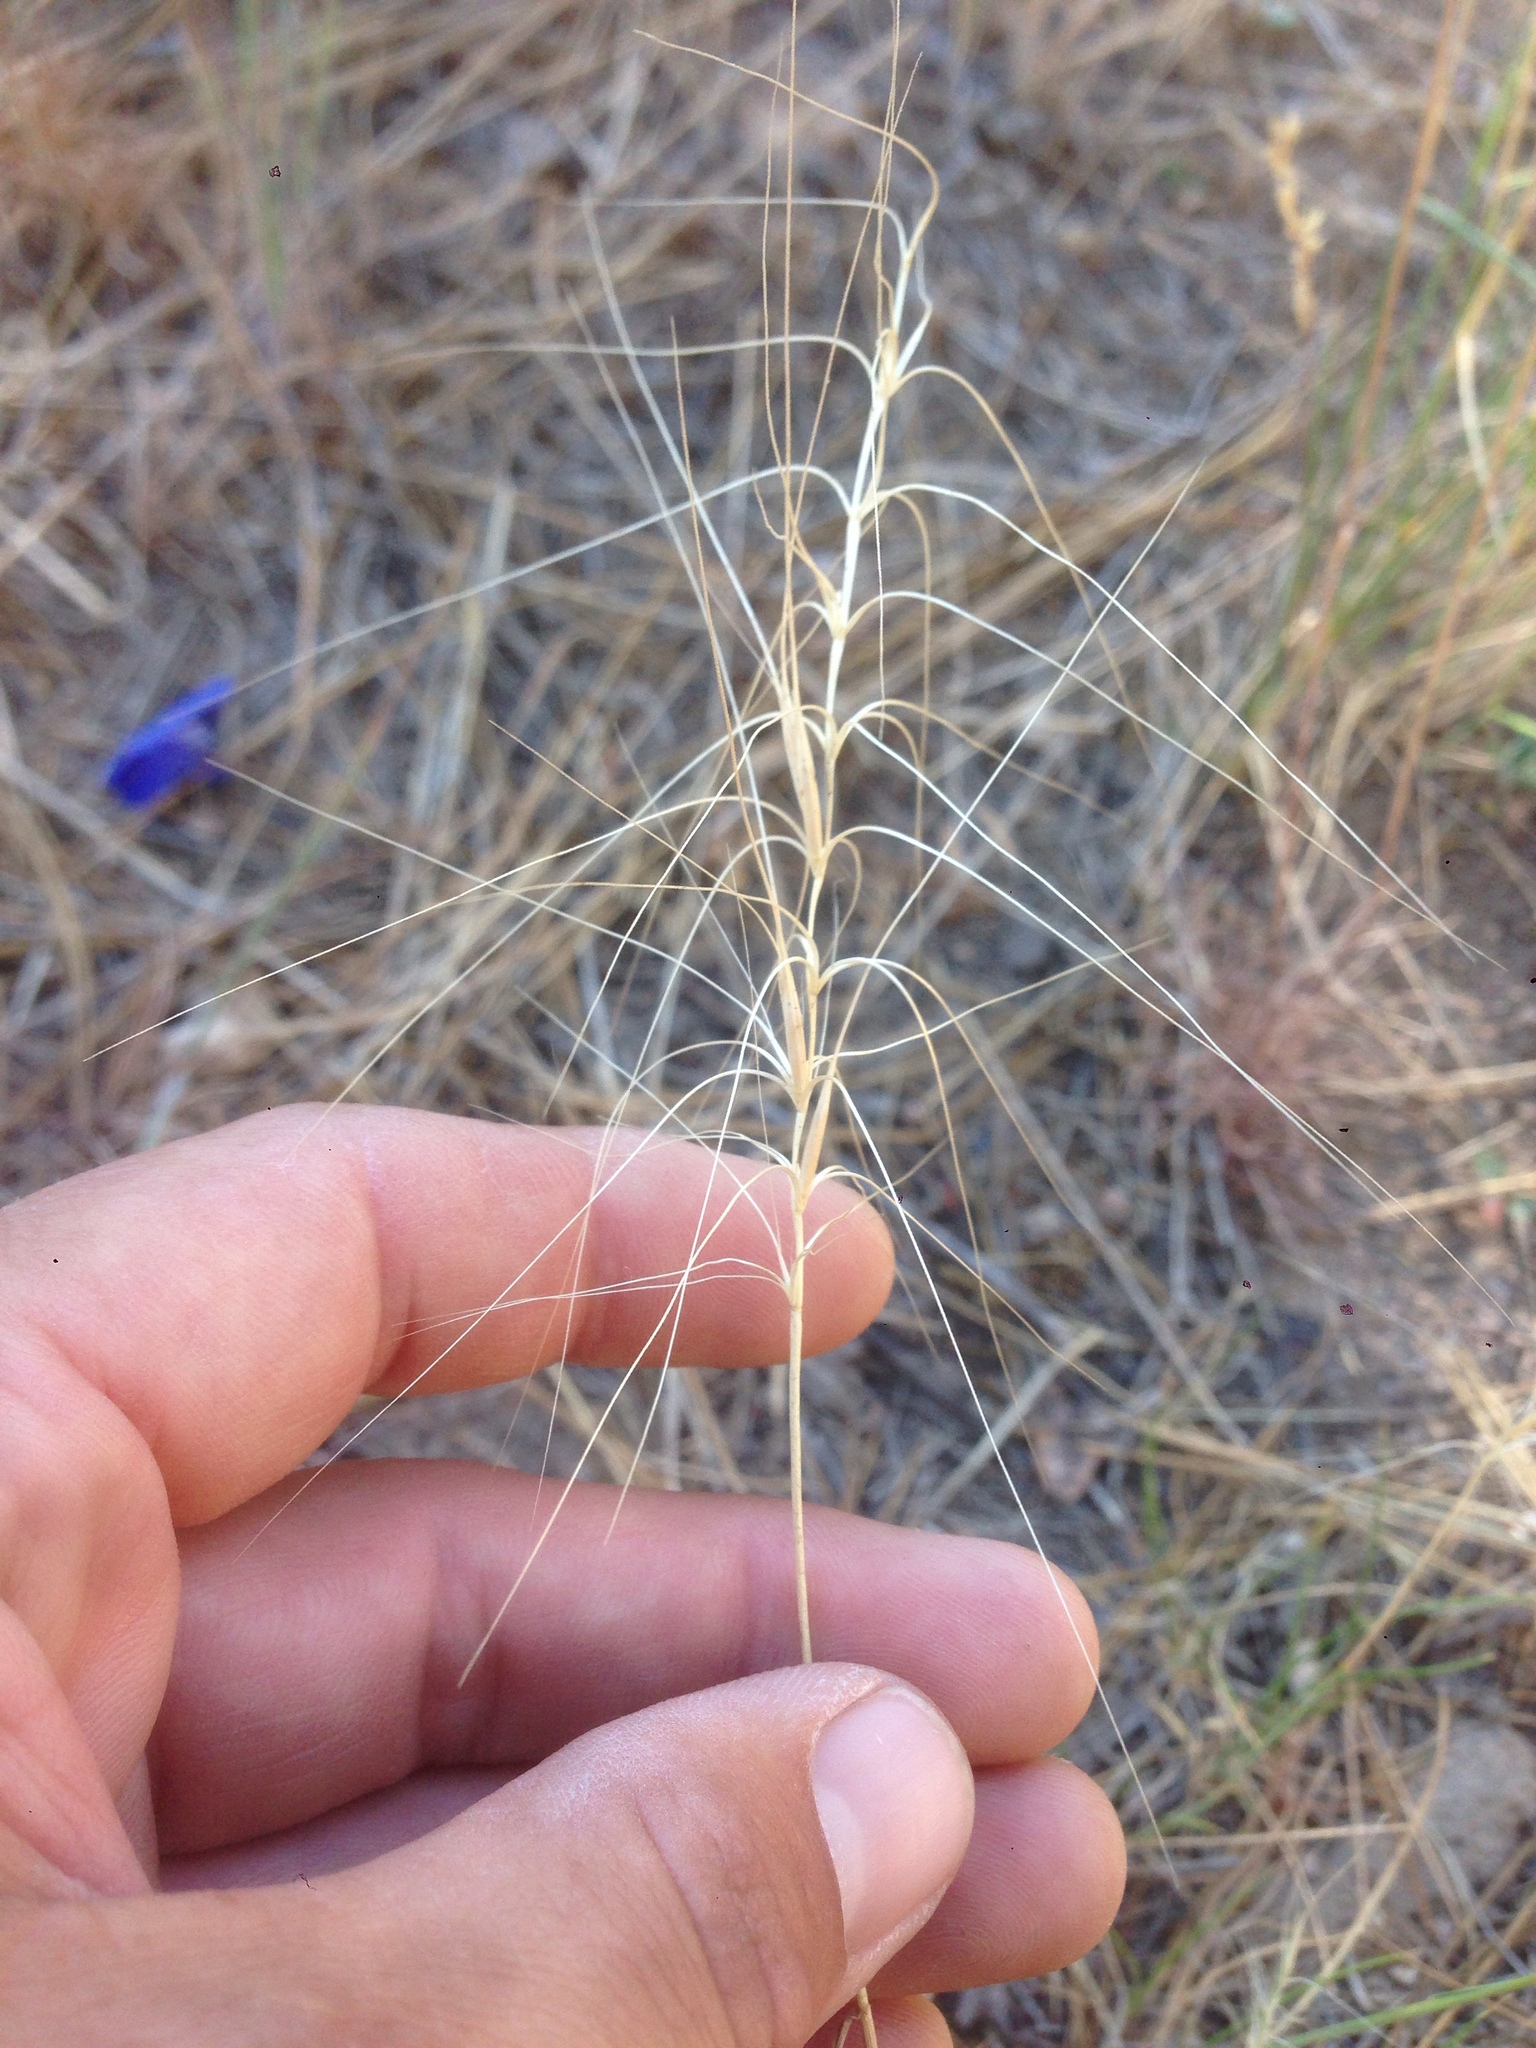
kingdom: Plantae
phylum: Tracheophyta
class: Liliopsida
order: Poales
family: Poaceae
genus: Elymus
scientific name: Elymus elymoides
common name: Bottlebrush squirreltail
